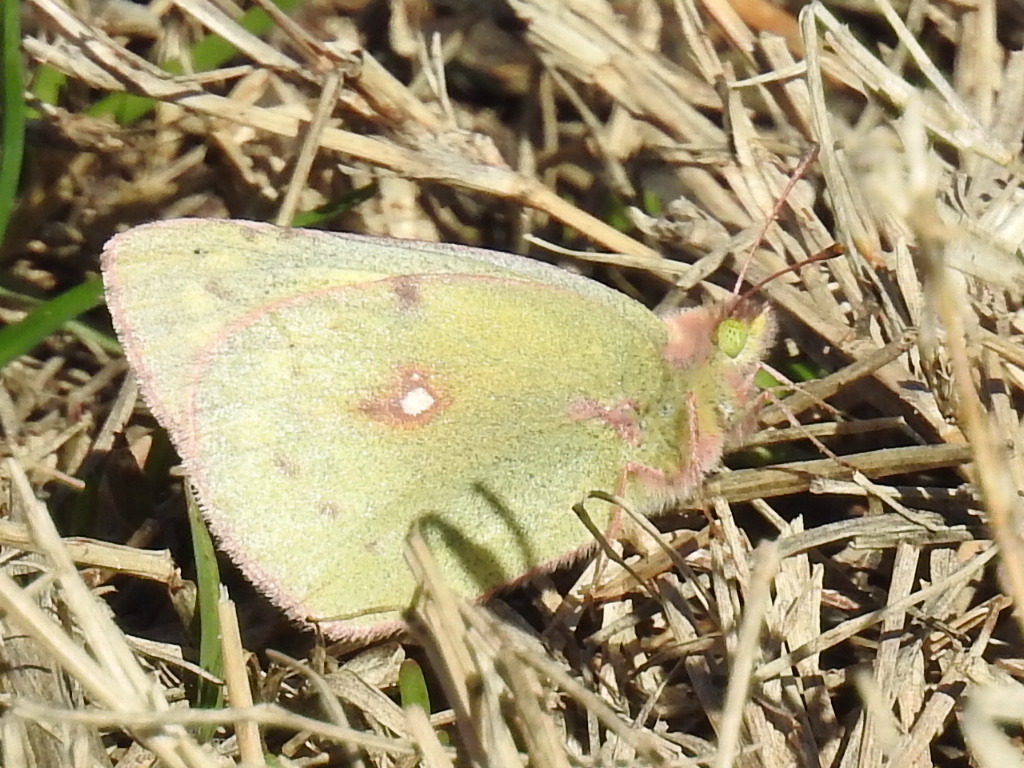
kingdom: Animalia
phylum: Arthropoda
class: Insecta
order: Lepidoptera
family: Pieridae
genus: Colias
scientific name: Colias eurytheme
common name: Alfalfa butterfly
